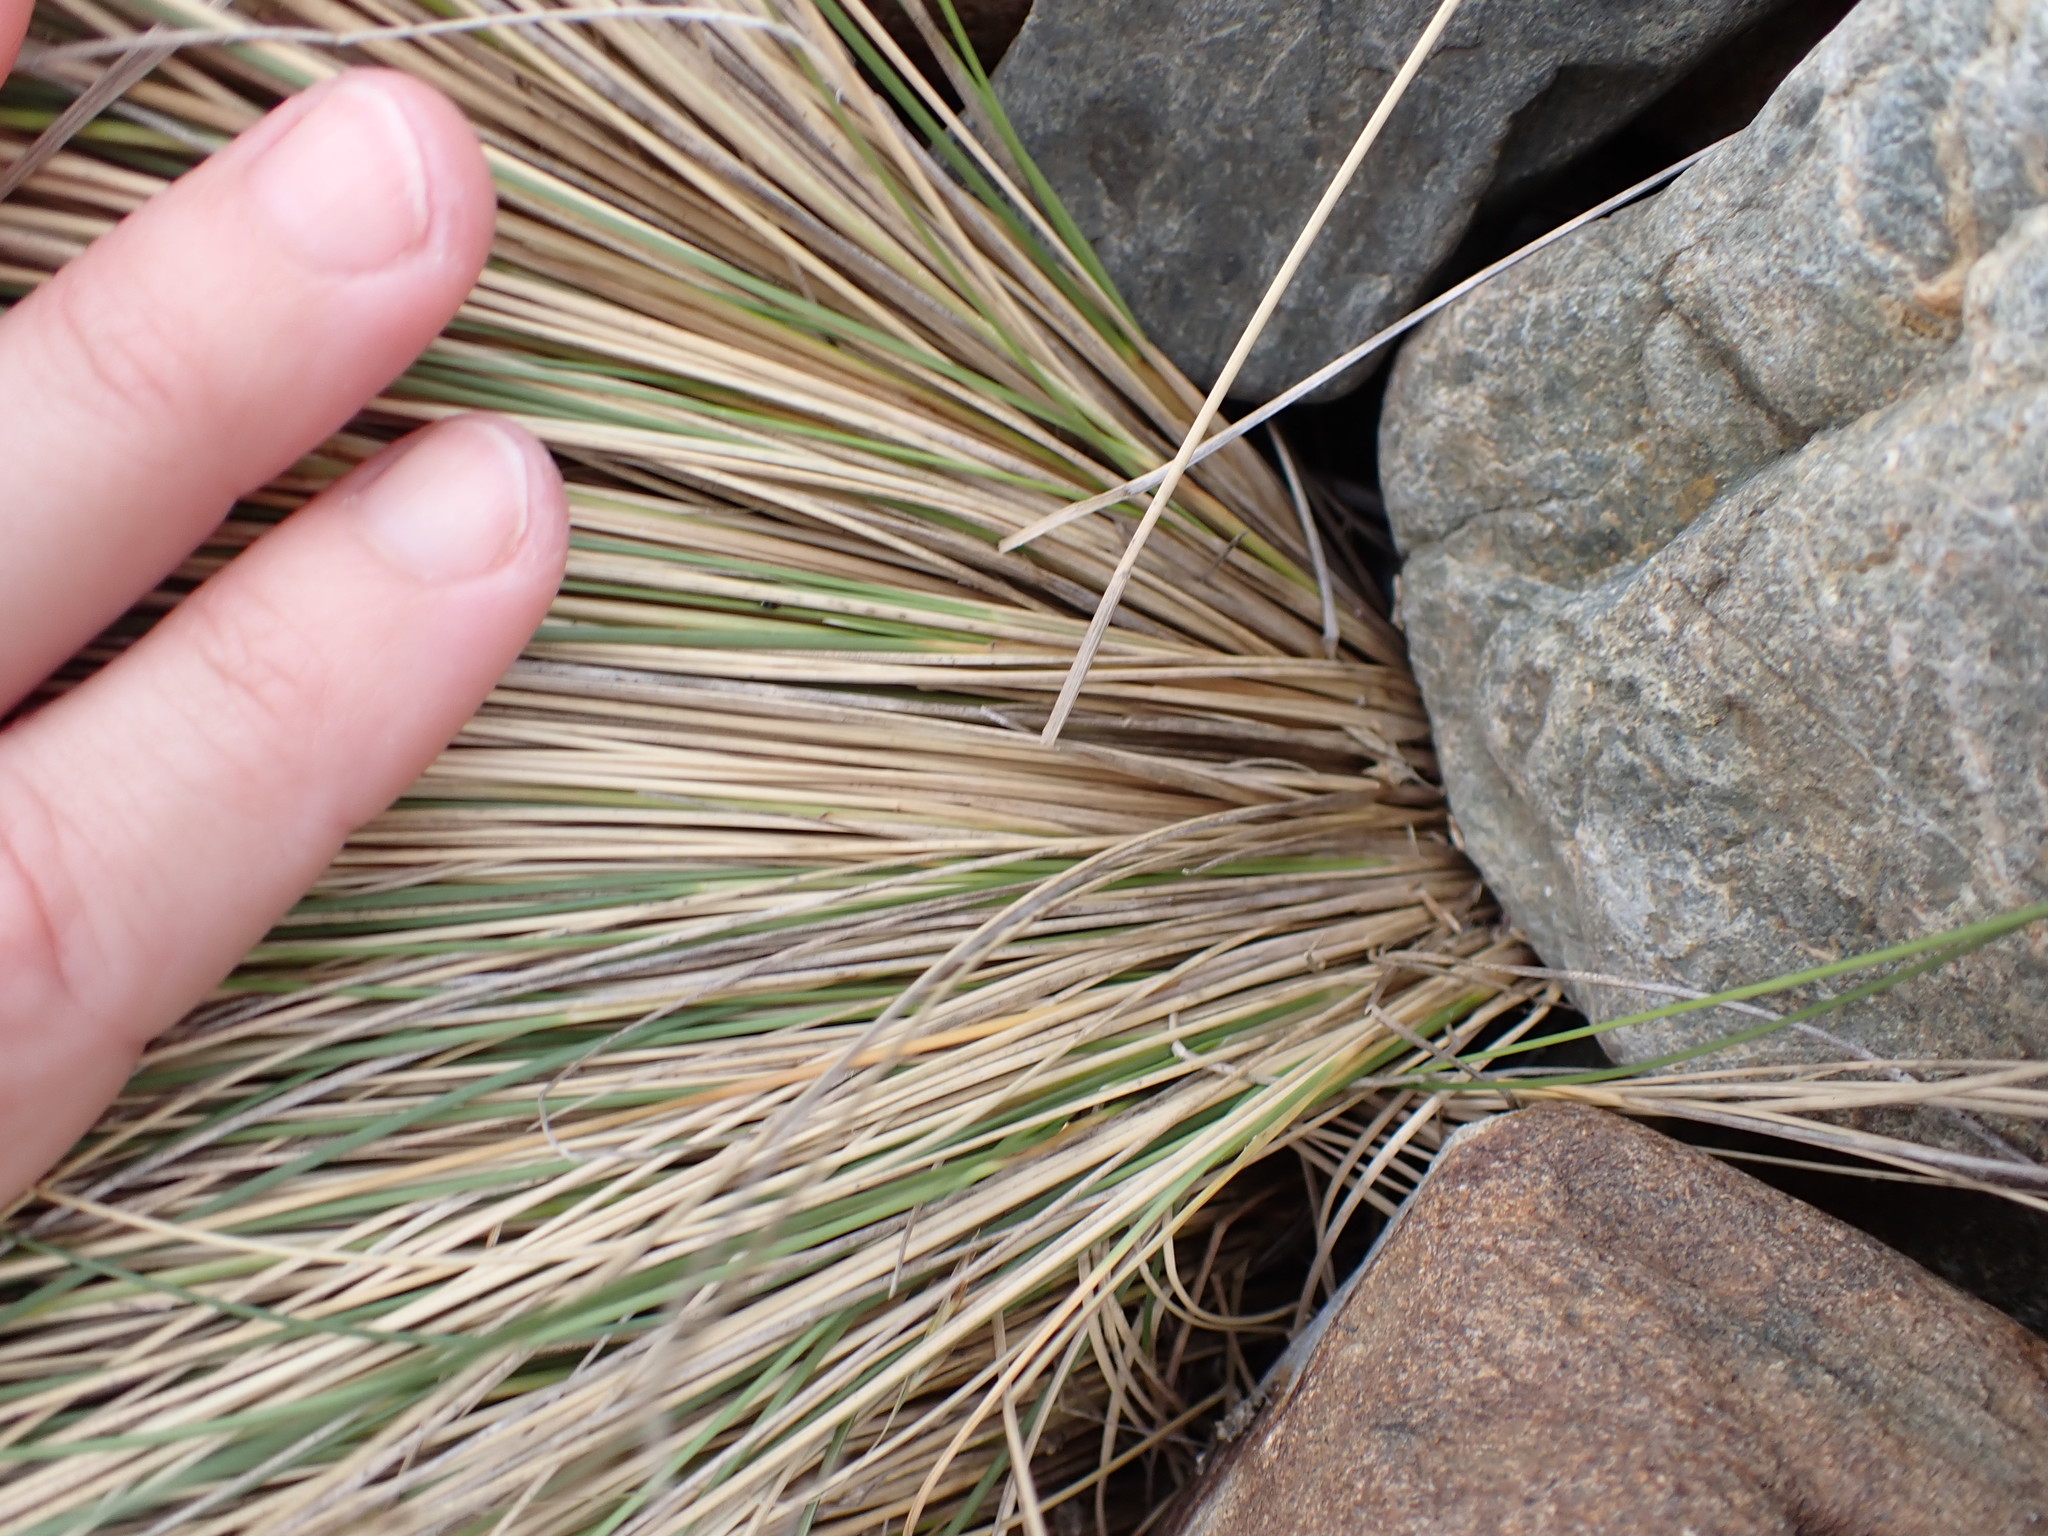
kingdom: Plantae
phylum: Tracheophyta
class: Liliopsida
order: Poales
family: Poaceae
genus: Poa
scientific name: Poa billardierei
